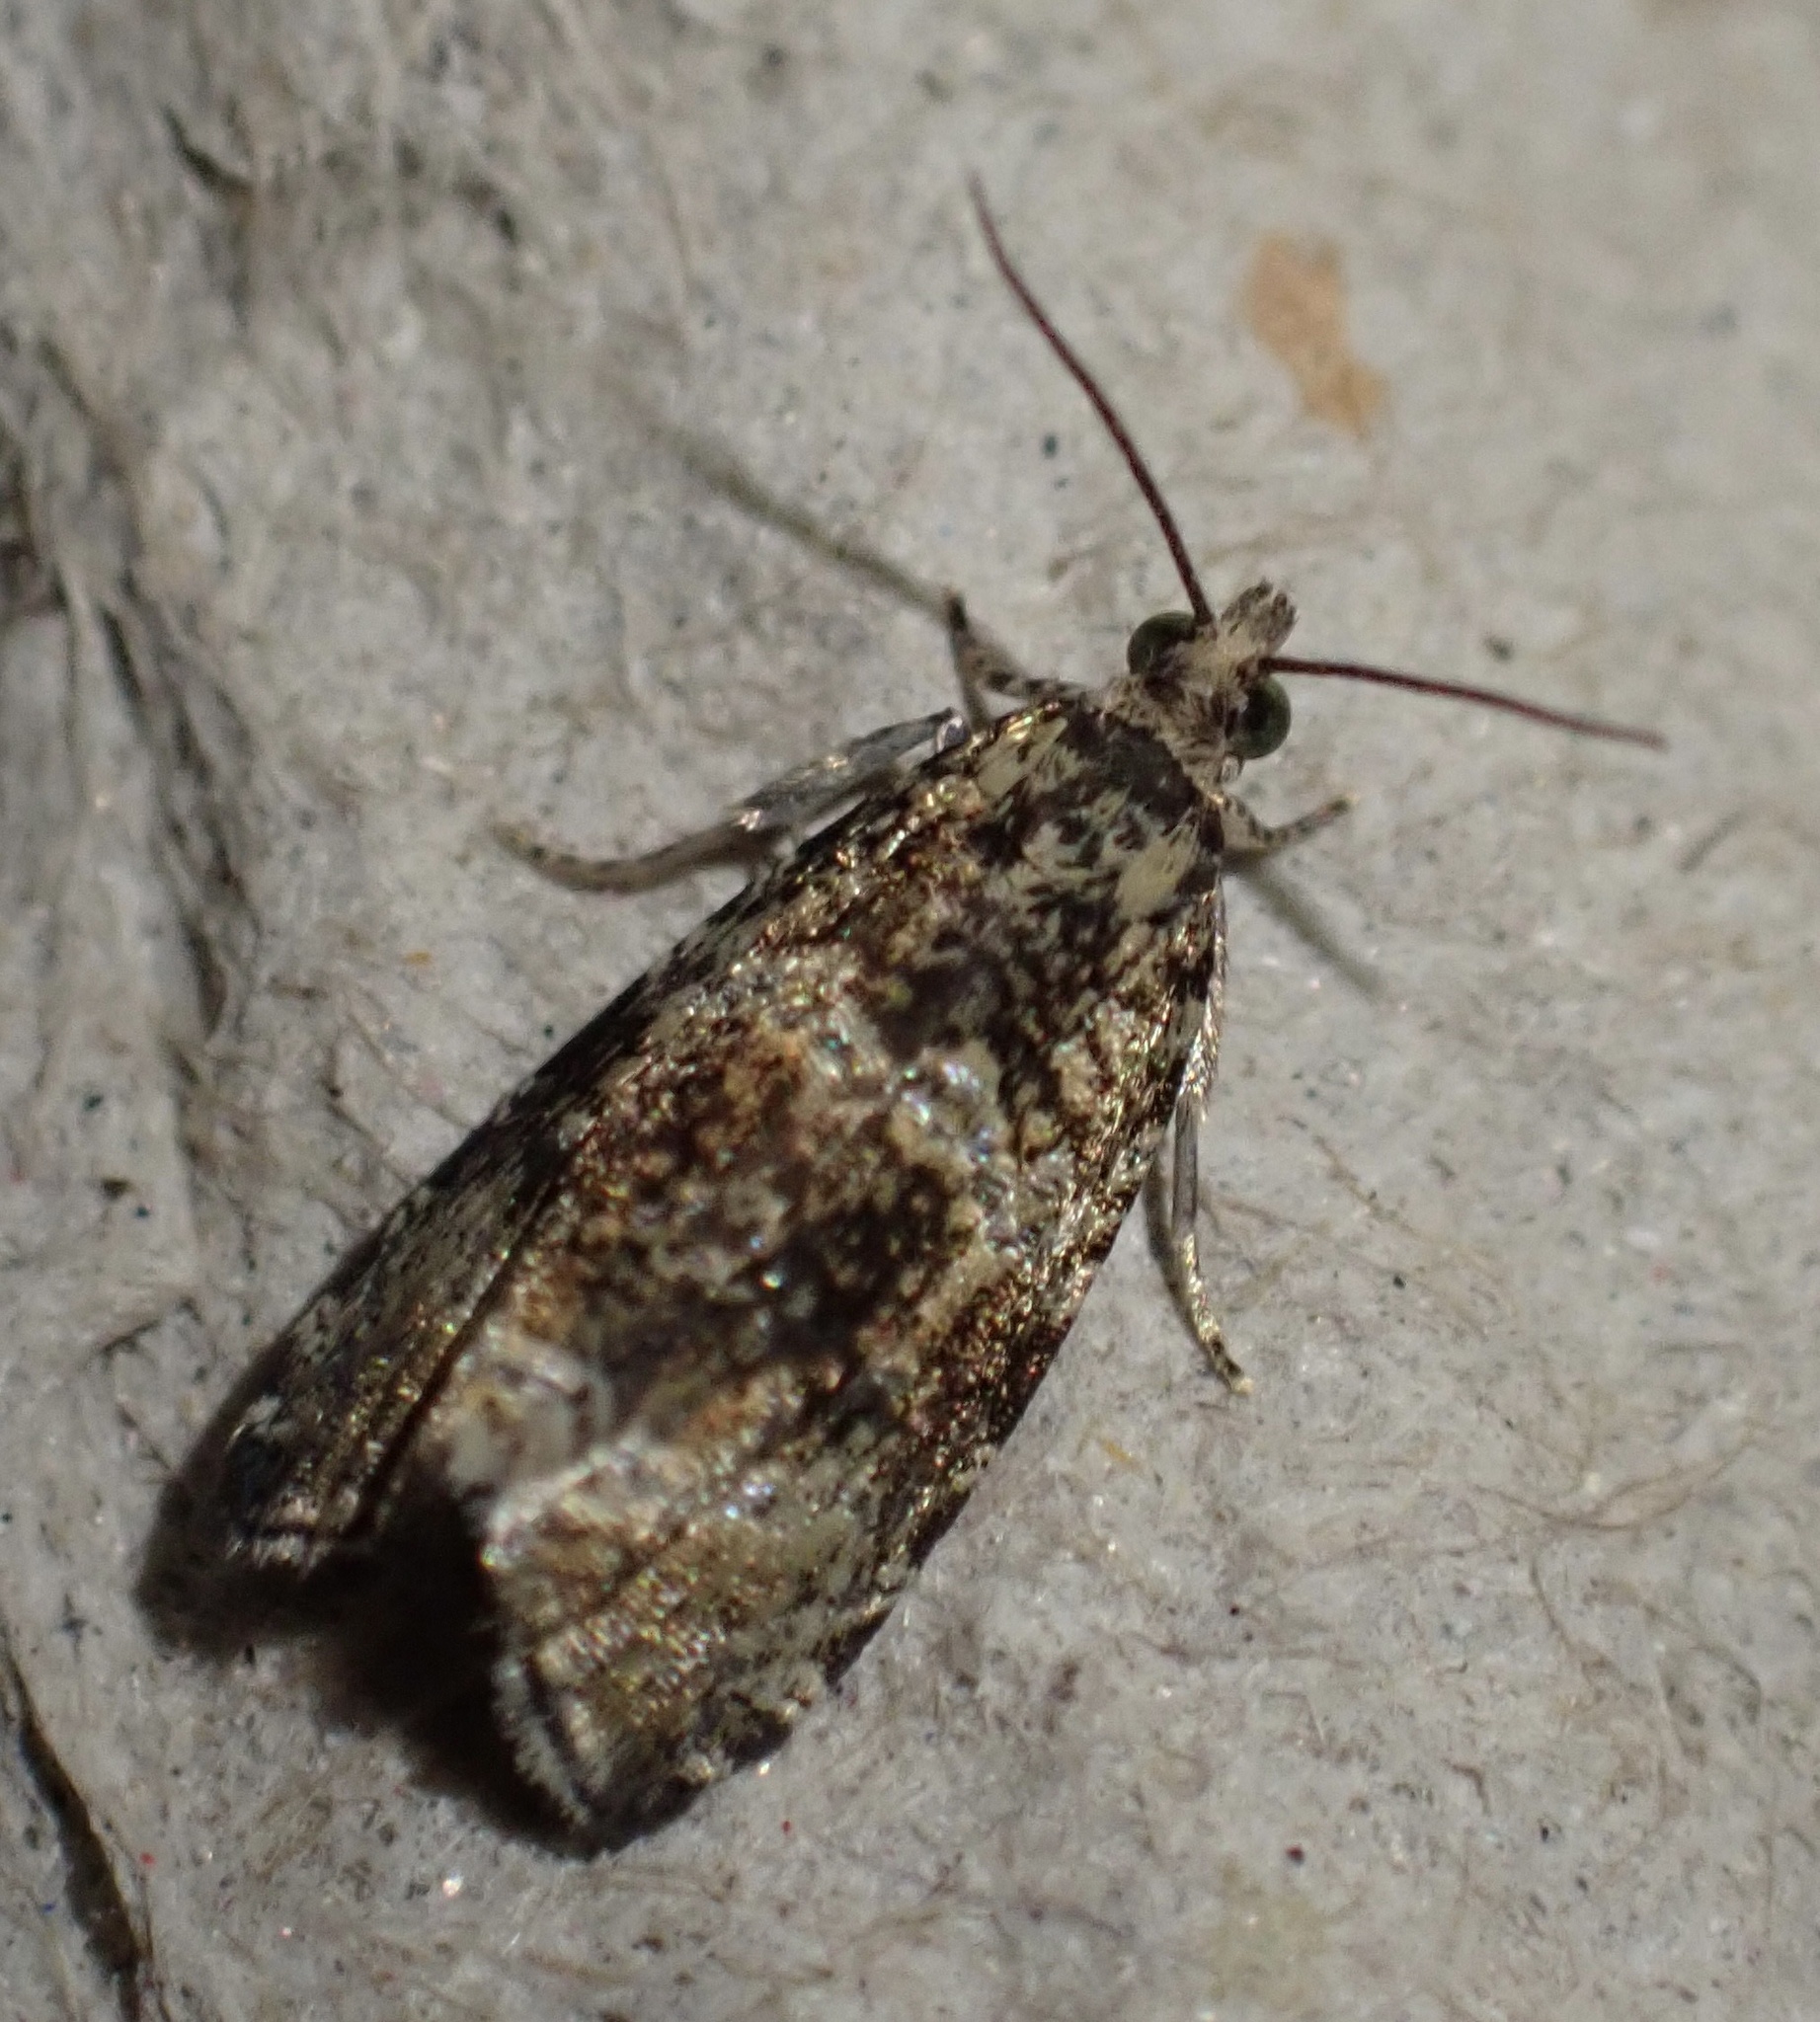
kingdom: Animalia
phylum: Arthropoda
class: Insecta
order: Lepidoptera
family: Tortricidae
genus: Syricoris
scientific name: Syricoris lacunana
